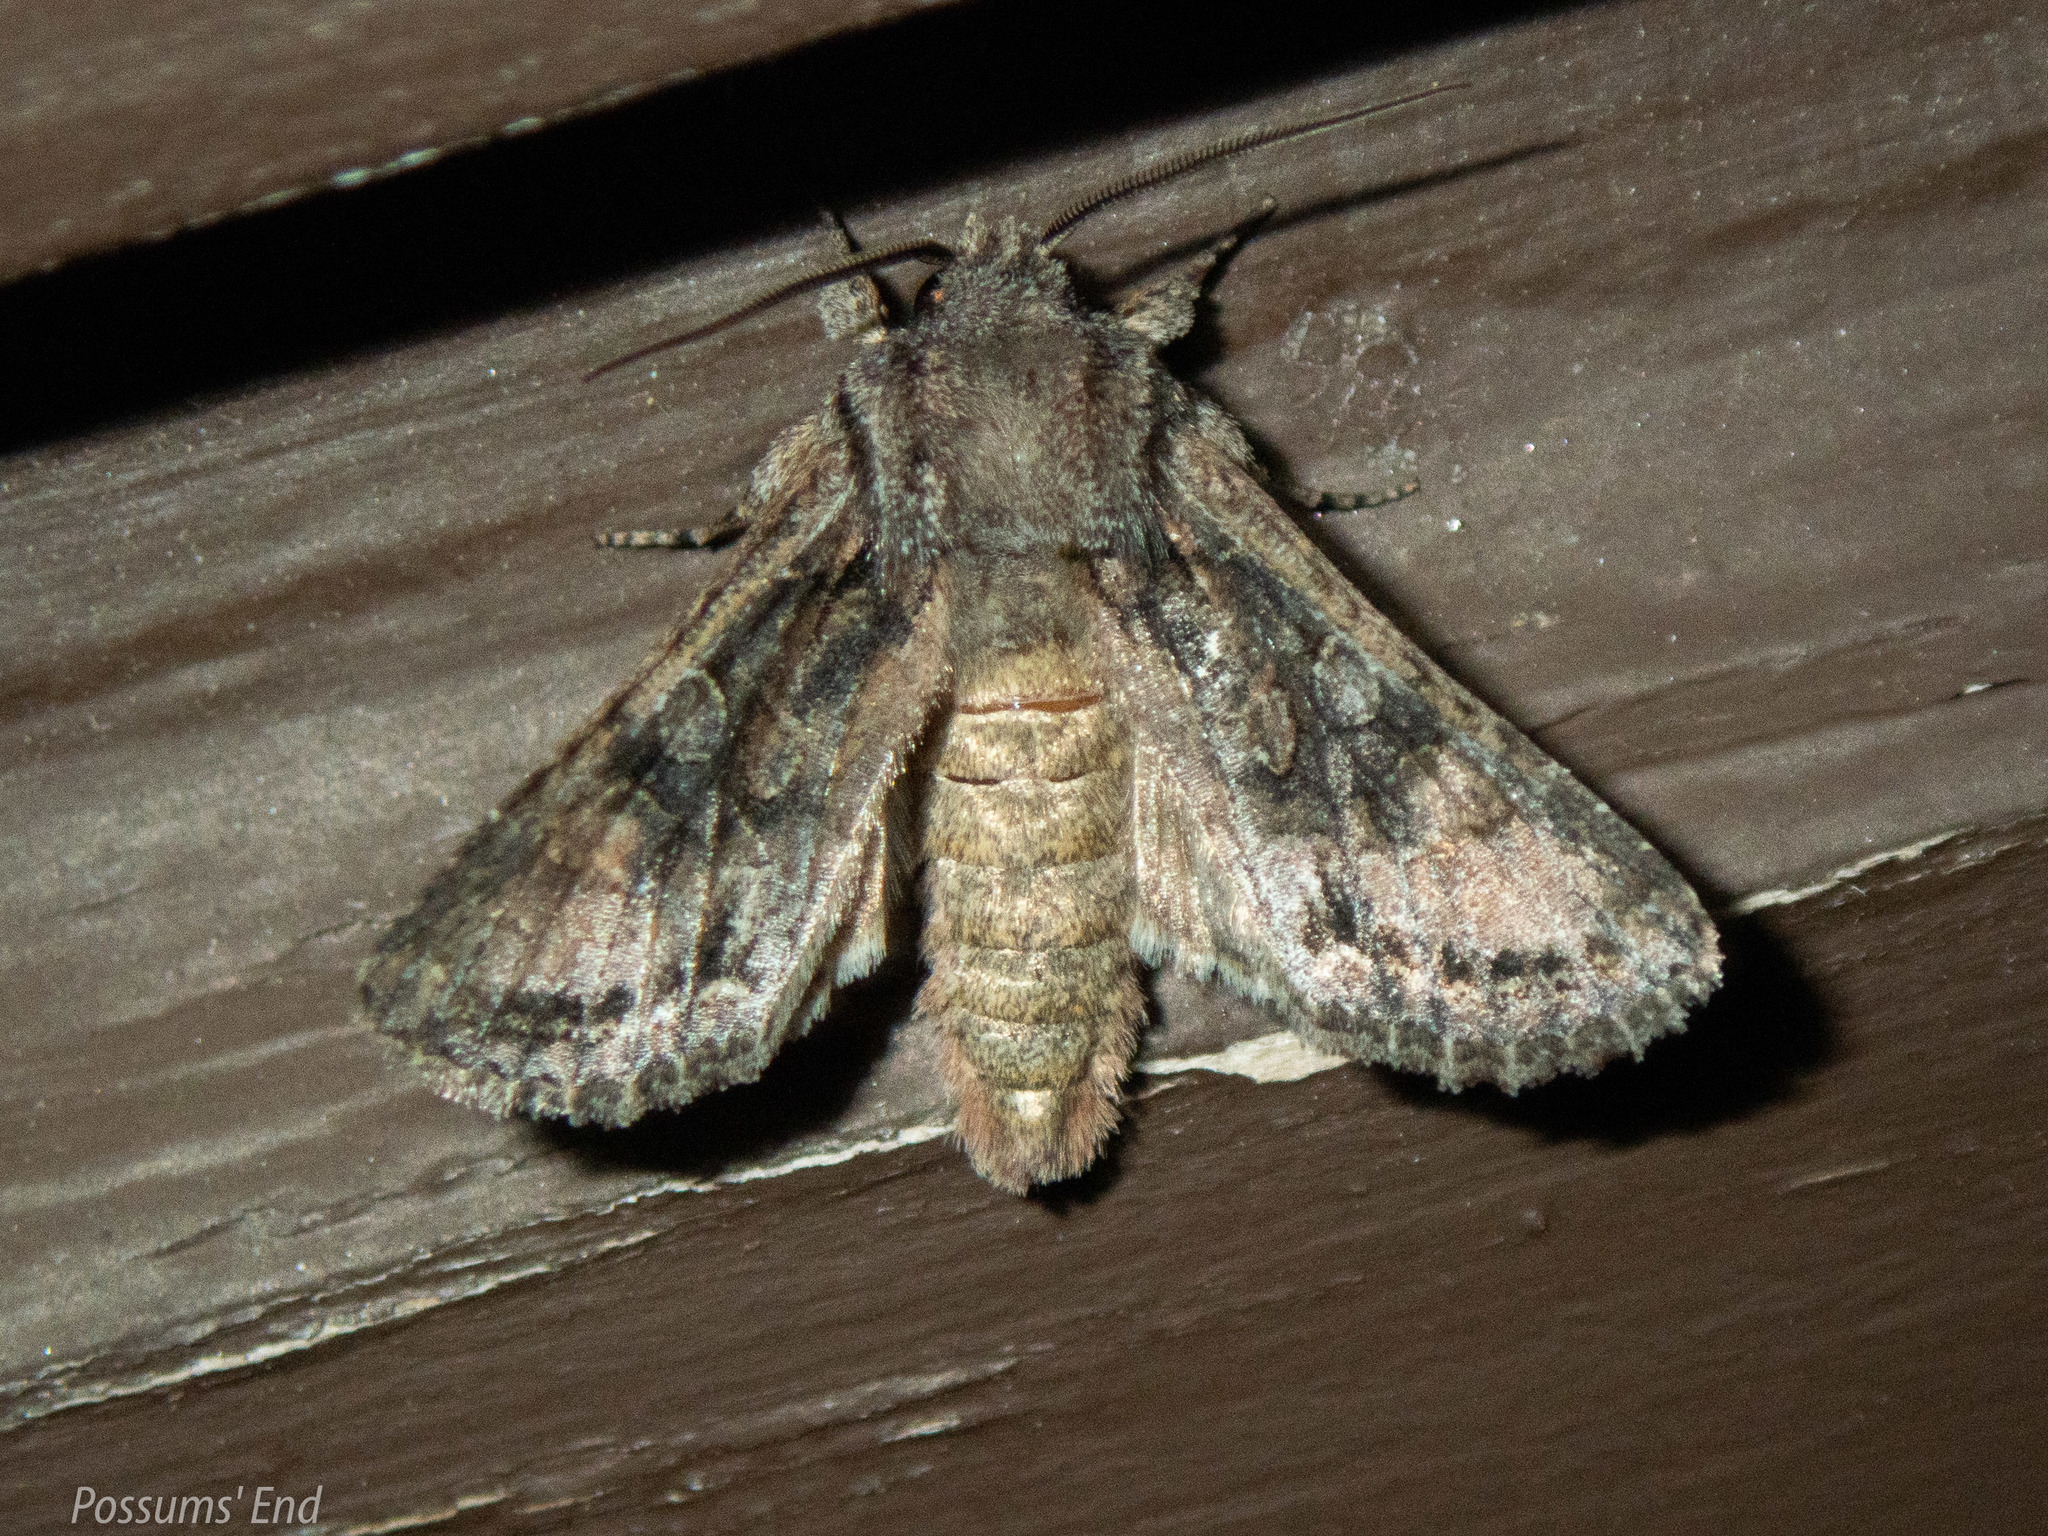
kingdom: Animalia
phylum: Arthropoda
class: Insecta
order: Lepidoptera
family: Noctuidae
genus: Ichneutica
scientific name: Ichneutica mutans
